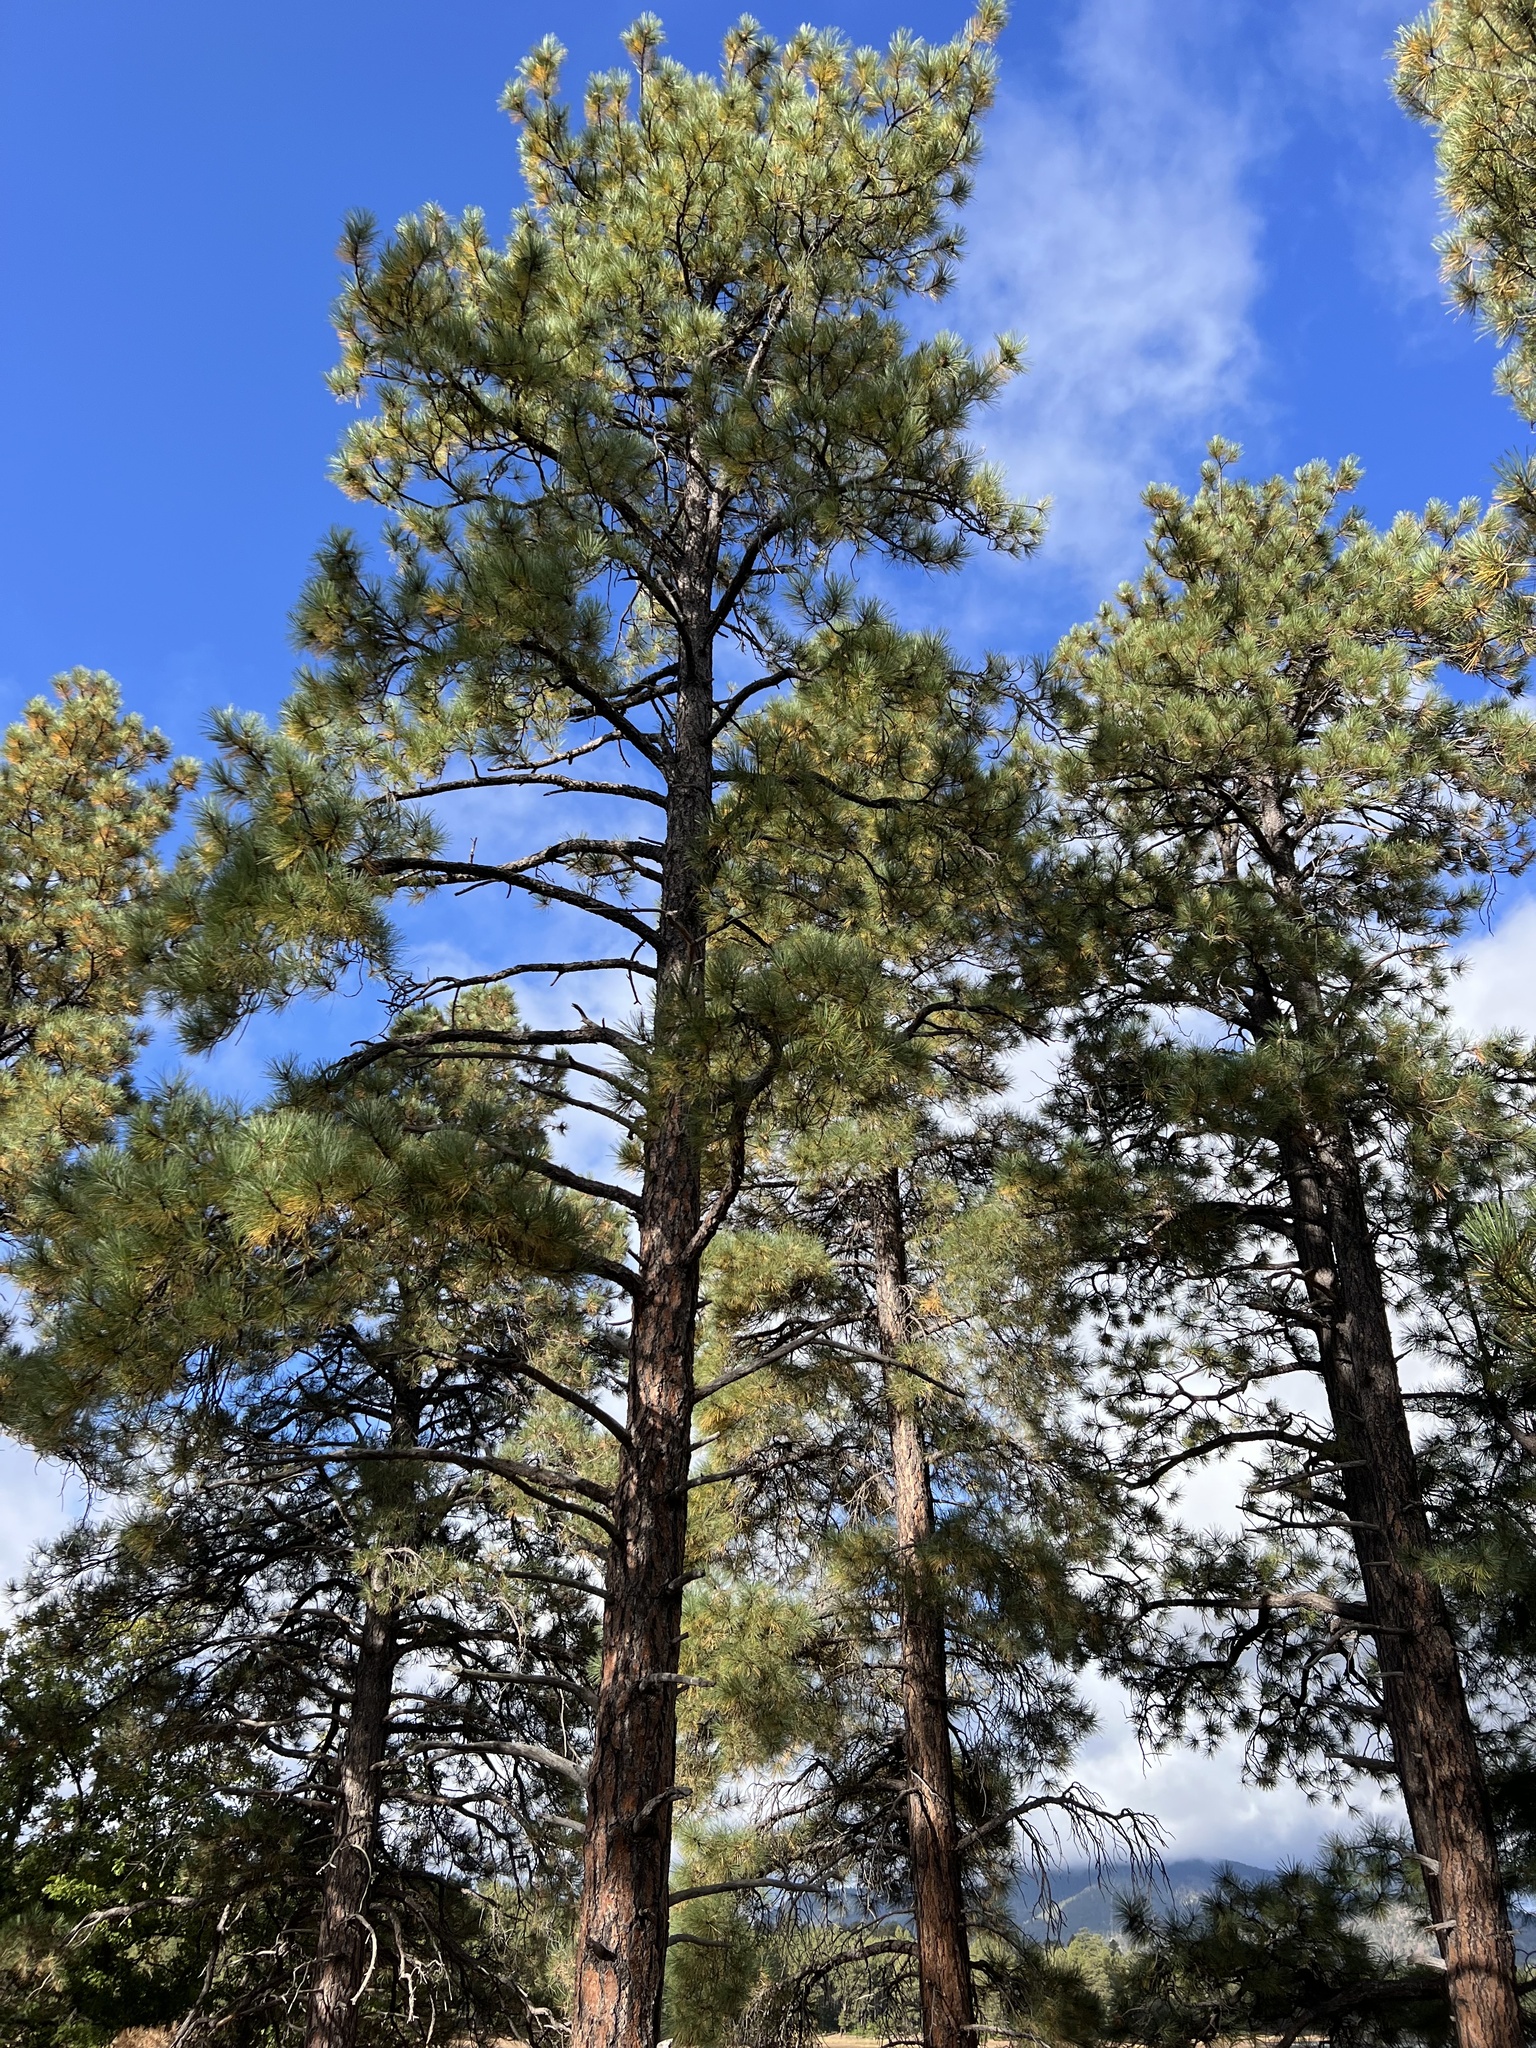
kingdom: Plantae
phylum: Tracheophyta
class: Pinopsida
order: Pinales
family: Pinaceae
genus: Pinus
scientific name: Pinus ponderosa
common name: Western yellow-pine
